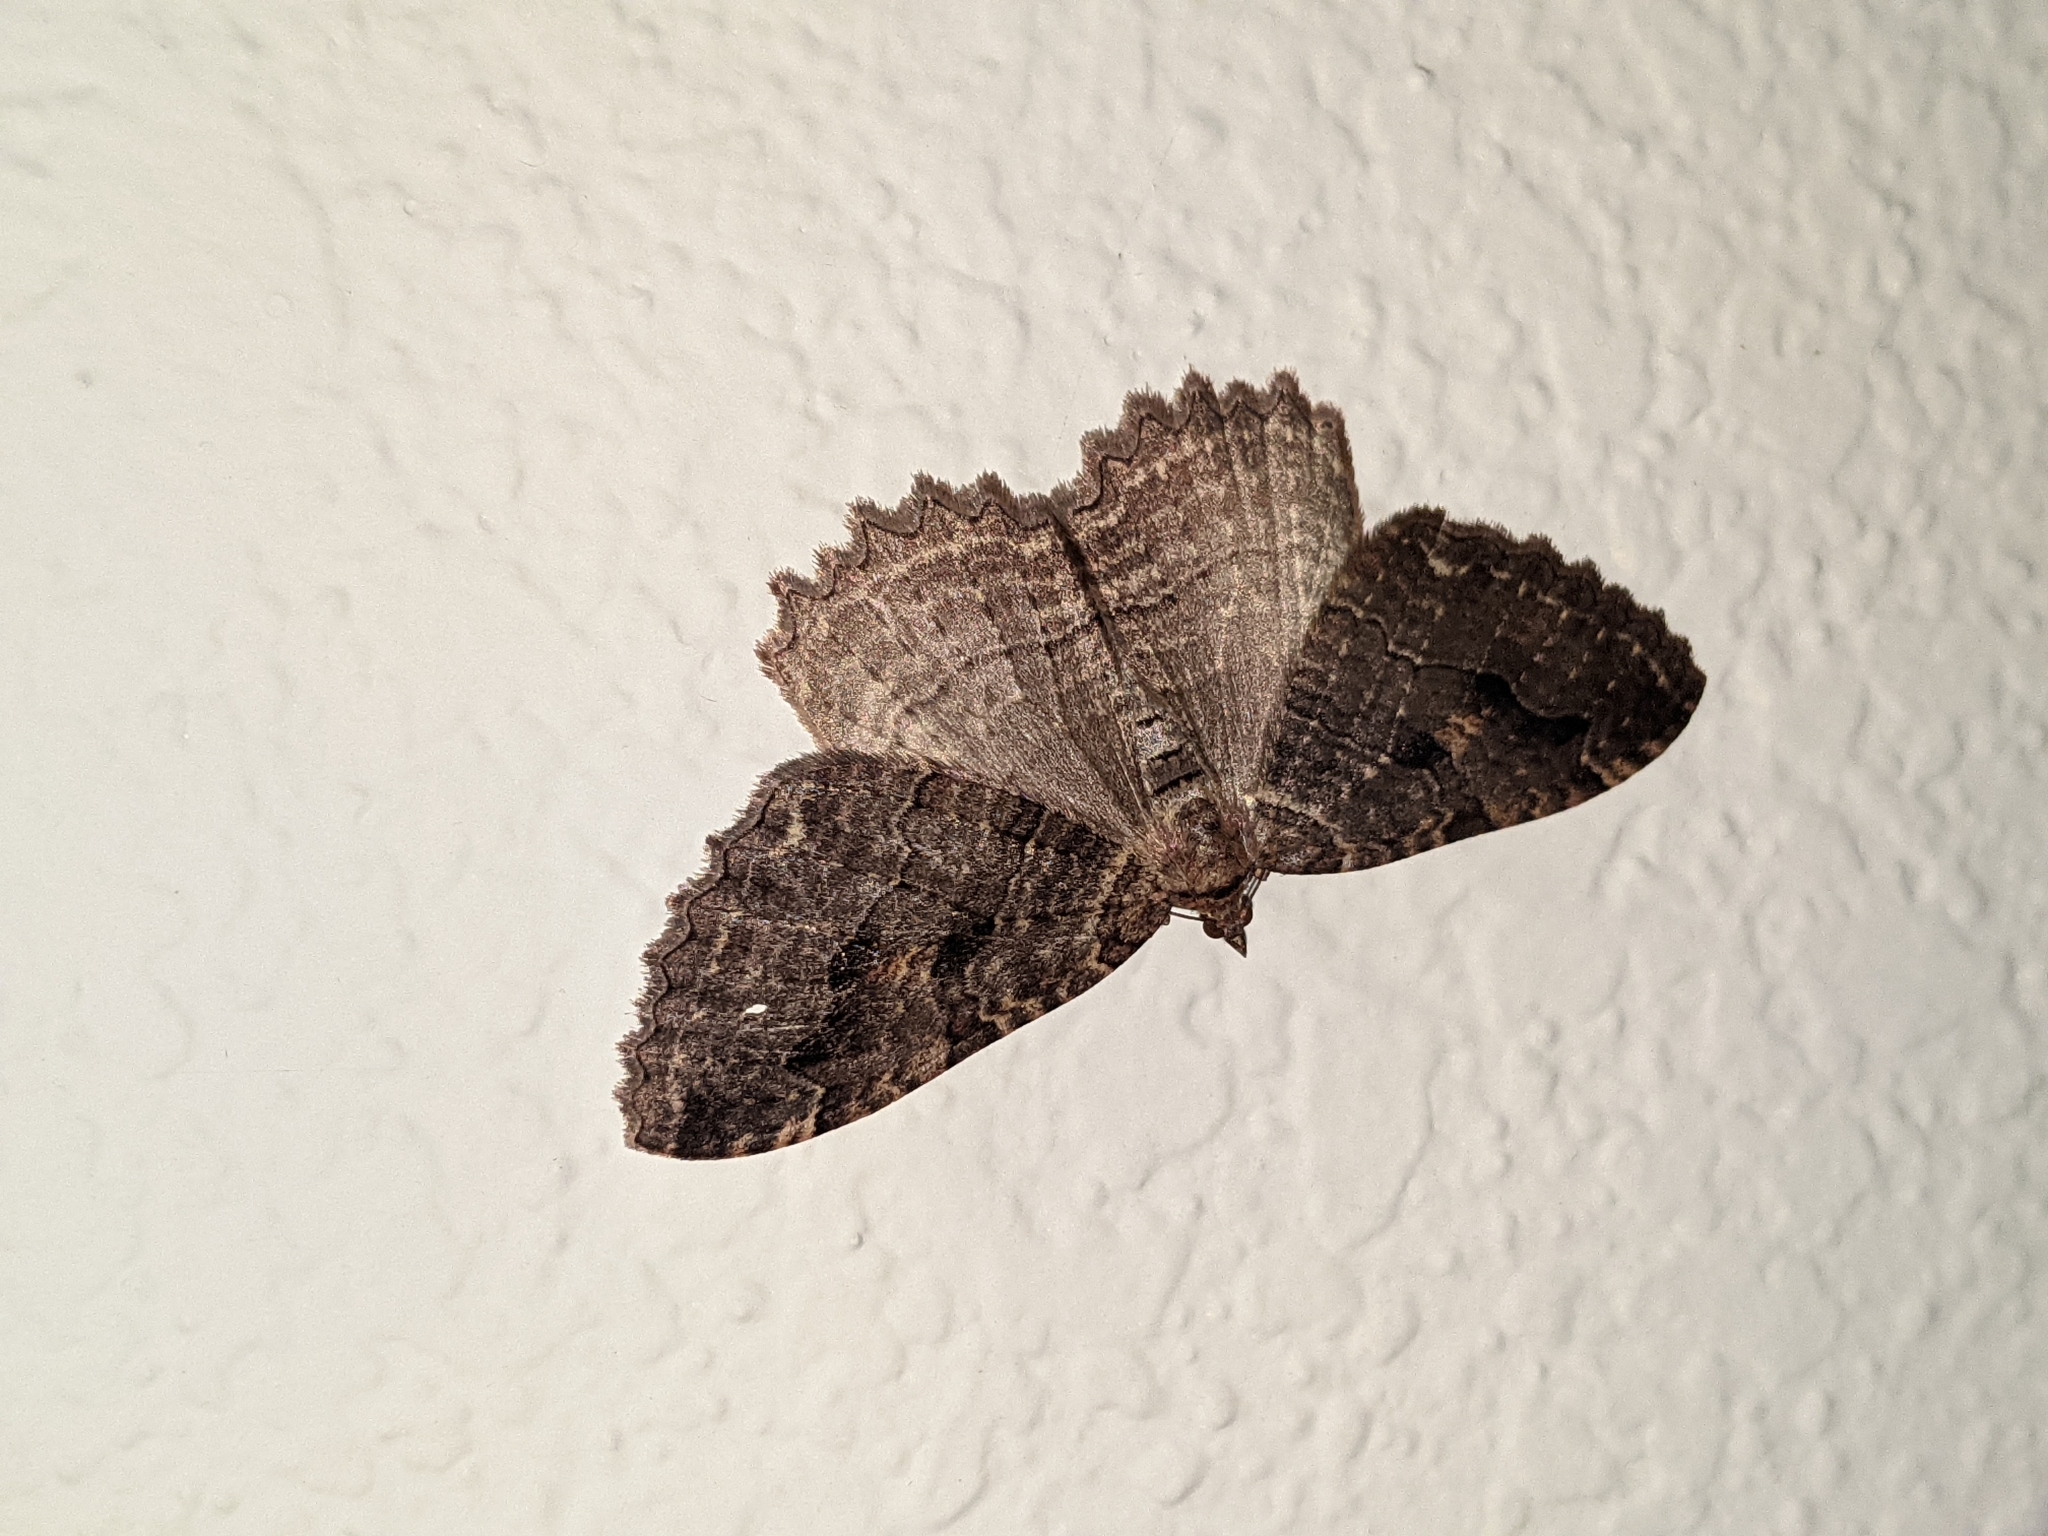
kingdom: Animalia
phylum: Arthropoda
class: Insecta
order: Lepidoptera
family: Geometridae
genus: Triphosa
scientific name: Triphosa haesitata
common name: Tissue moth
